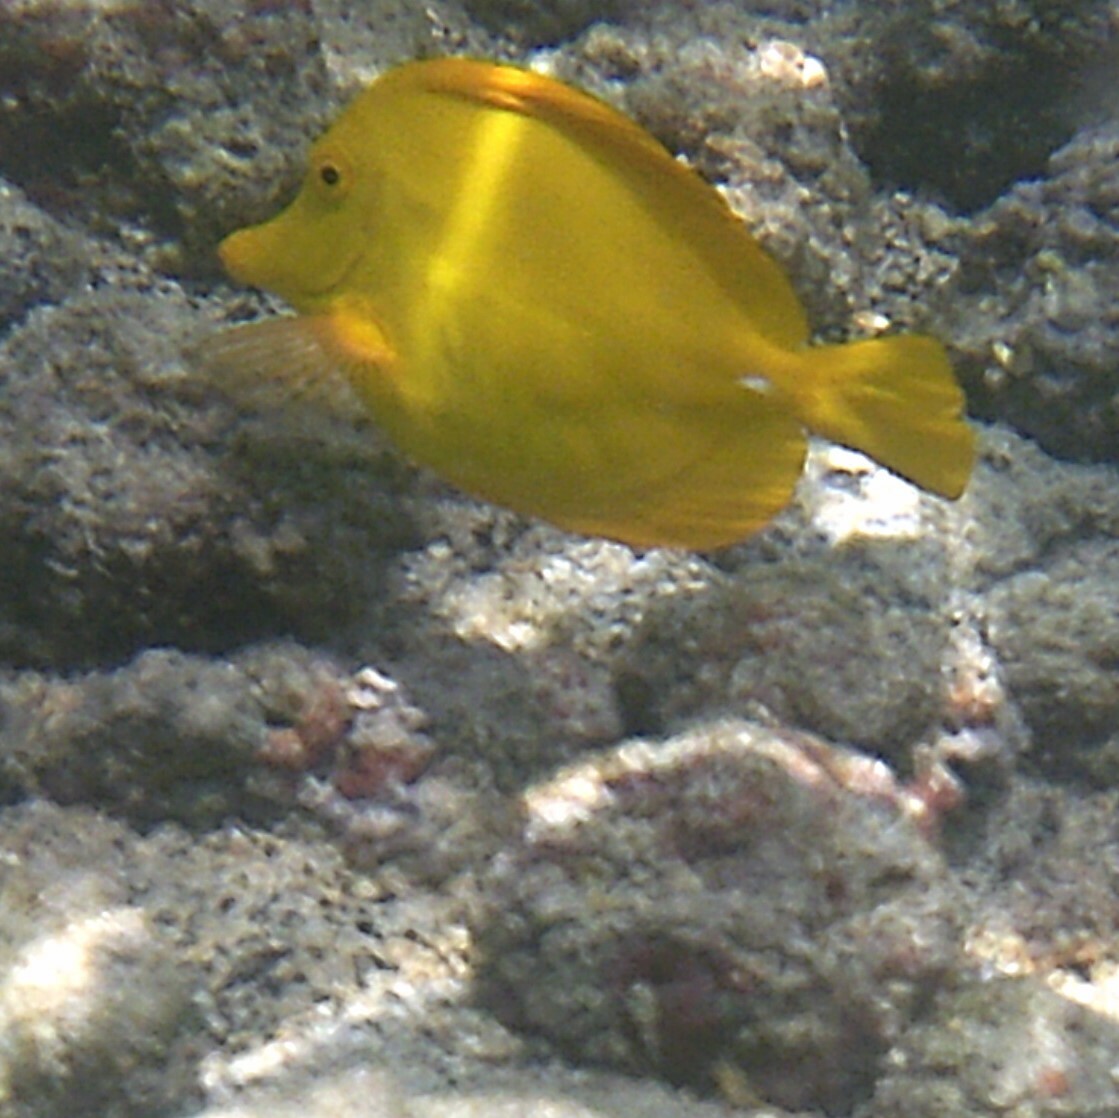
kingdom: Animalia
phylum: Chordata
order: Perciformes
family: Acanthuridae
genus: Zebrasoma
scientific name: Zebrasoma flavescens
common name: Yellow tang
